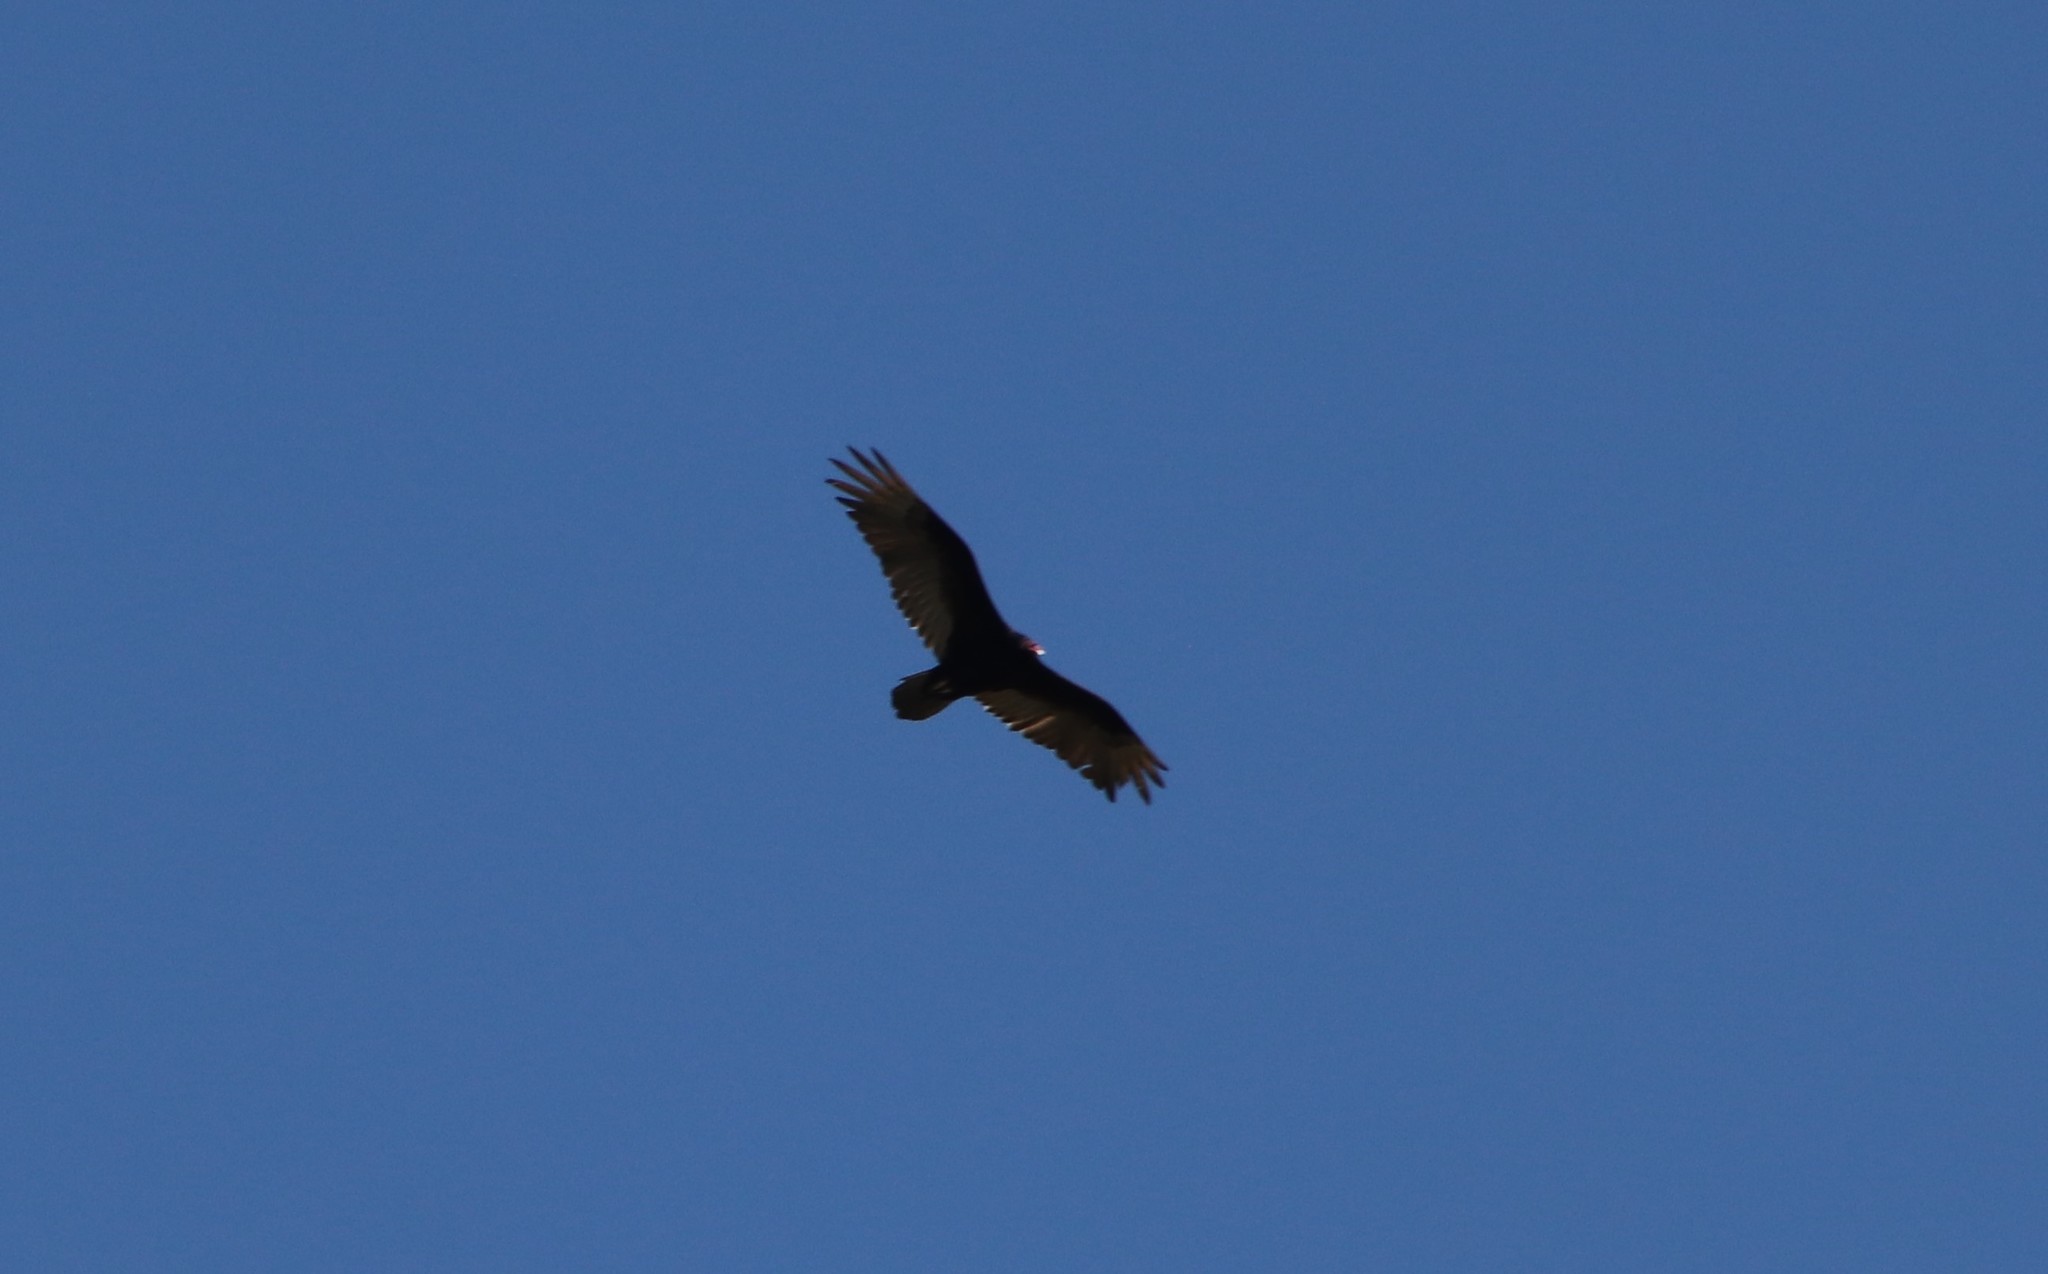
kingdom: Animalia
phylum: Chordata
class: Aves
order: Accipitriformes
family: Cathartidae
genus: Cathartes
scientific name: Cathartes aura
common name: Turkey vulture
